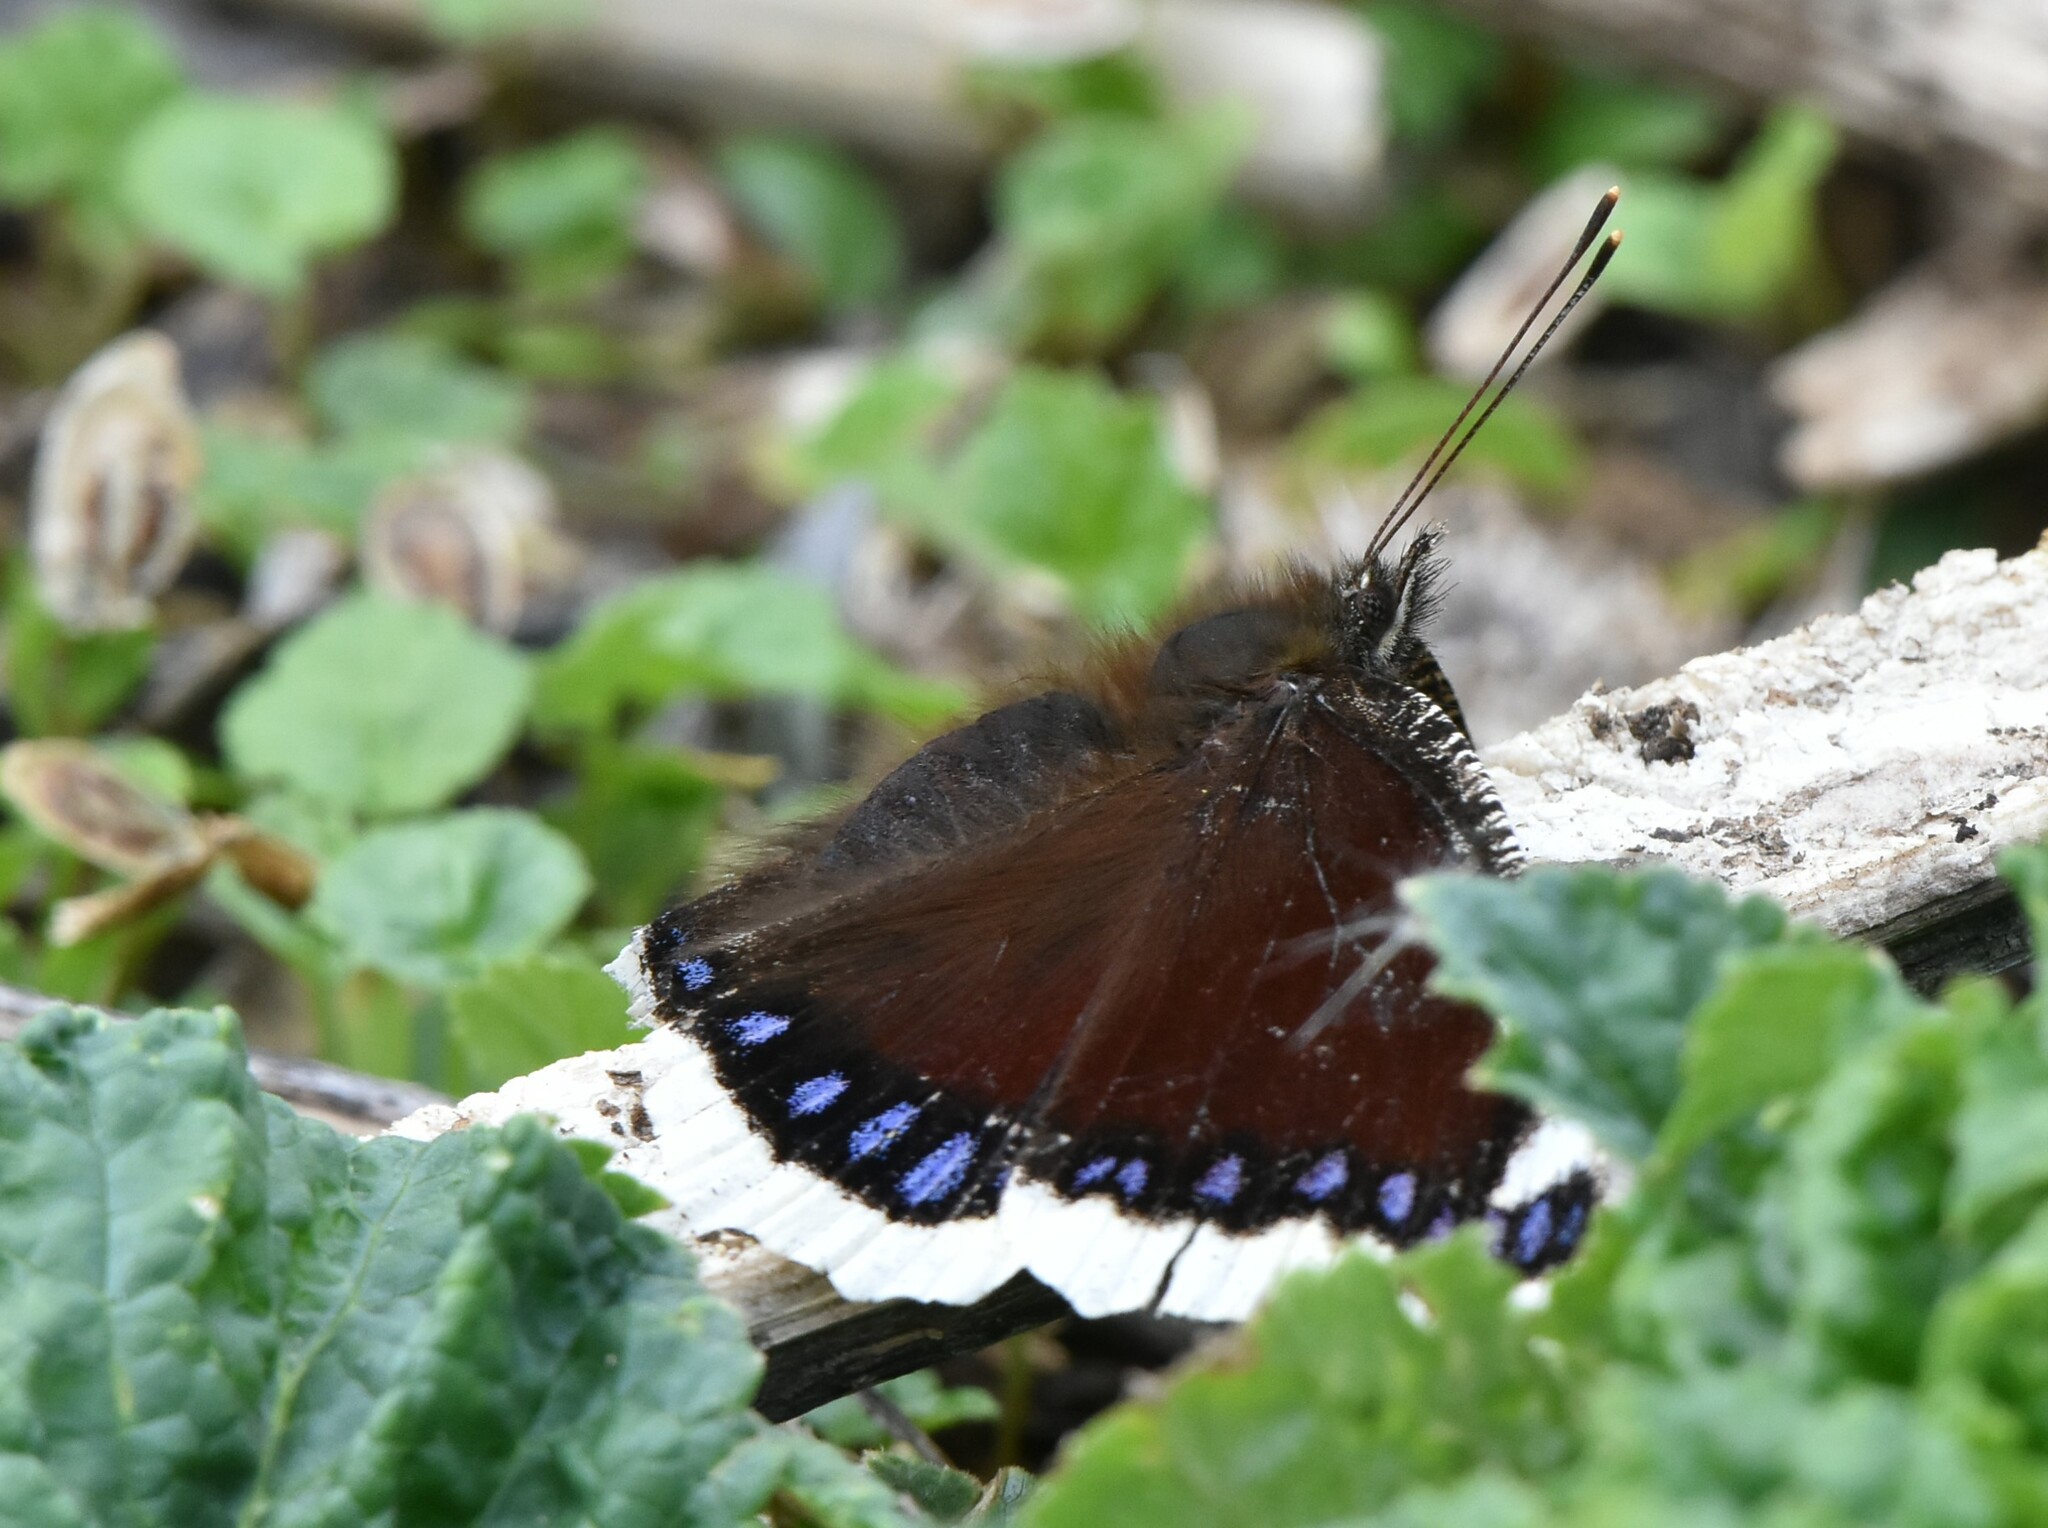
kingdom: Animalia
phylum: Arthropoda
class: Insecta
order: Lepidoptera
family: Nymphalidae
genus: Nymphalis
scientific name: Nymphalis antiopa
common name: Camberwell beauty
